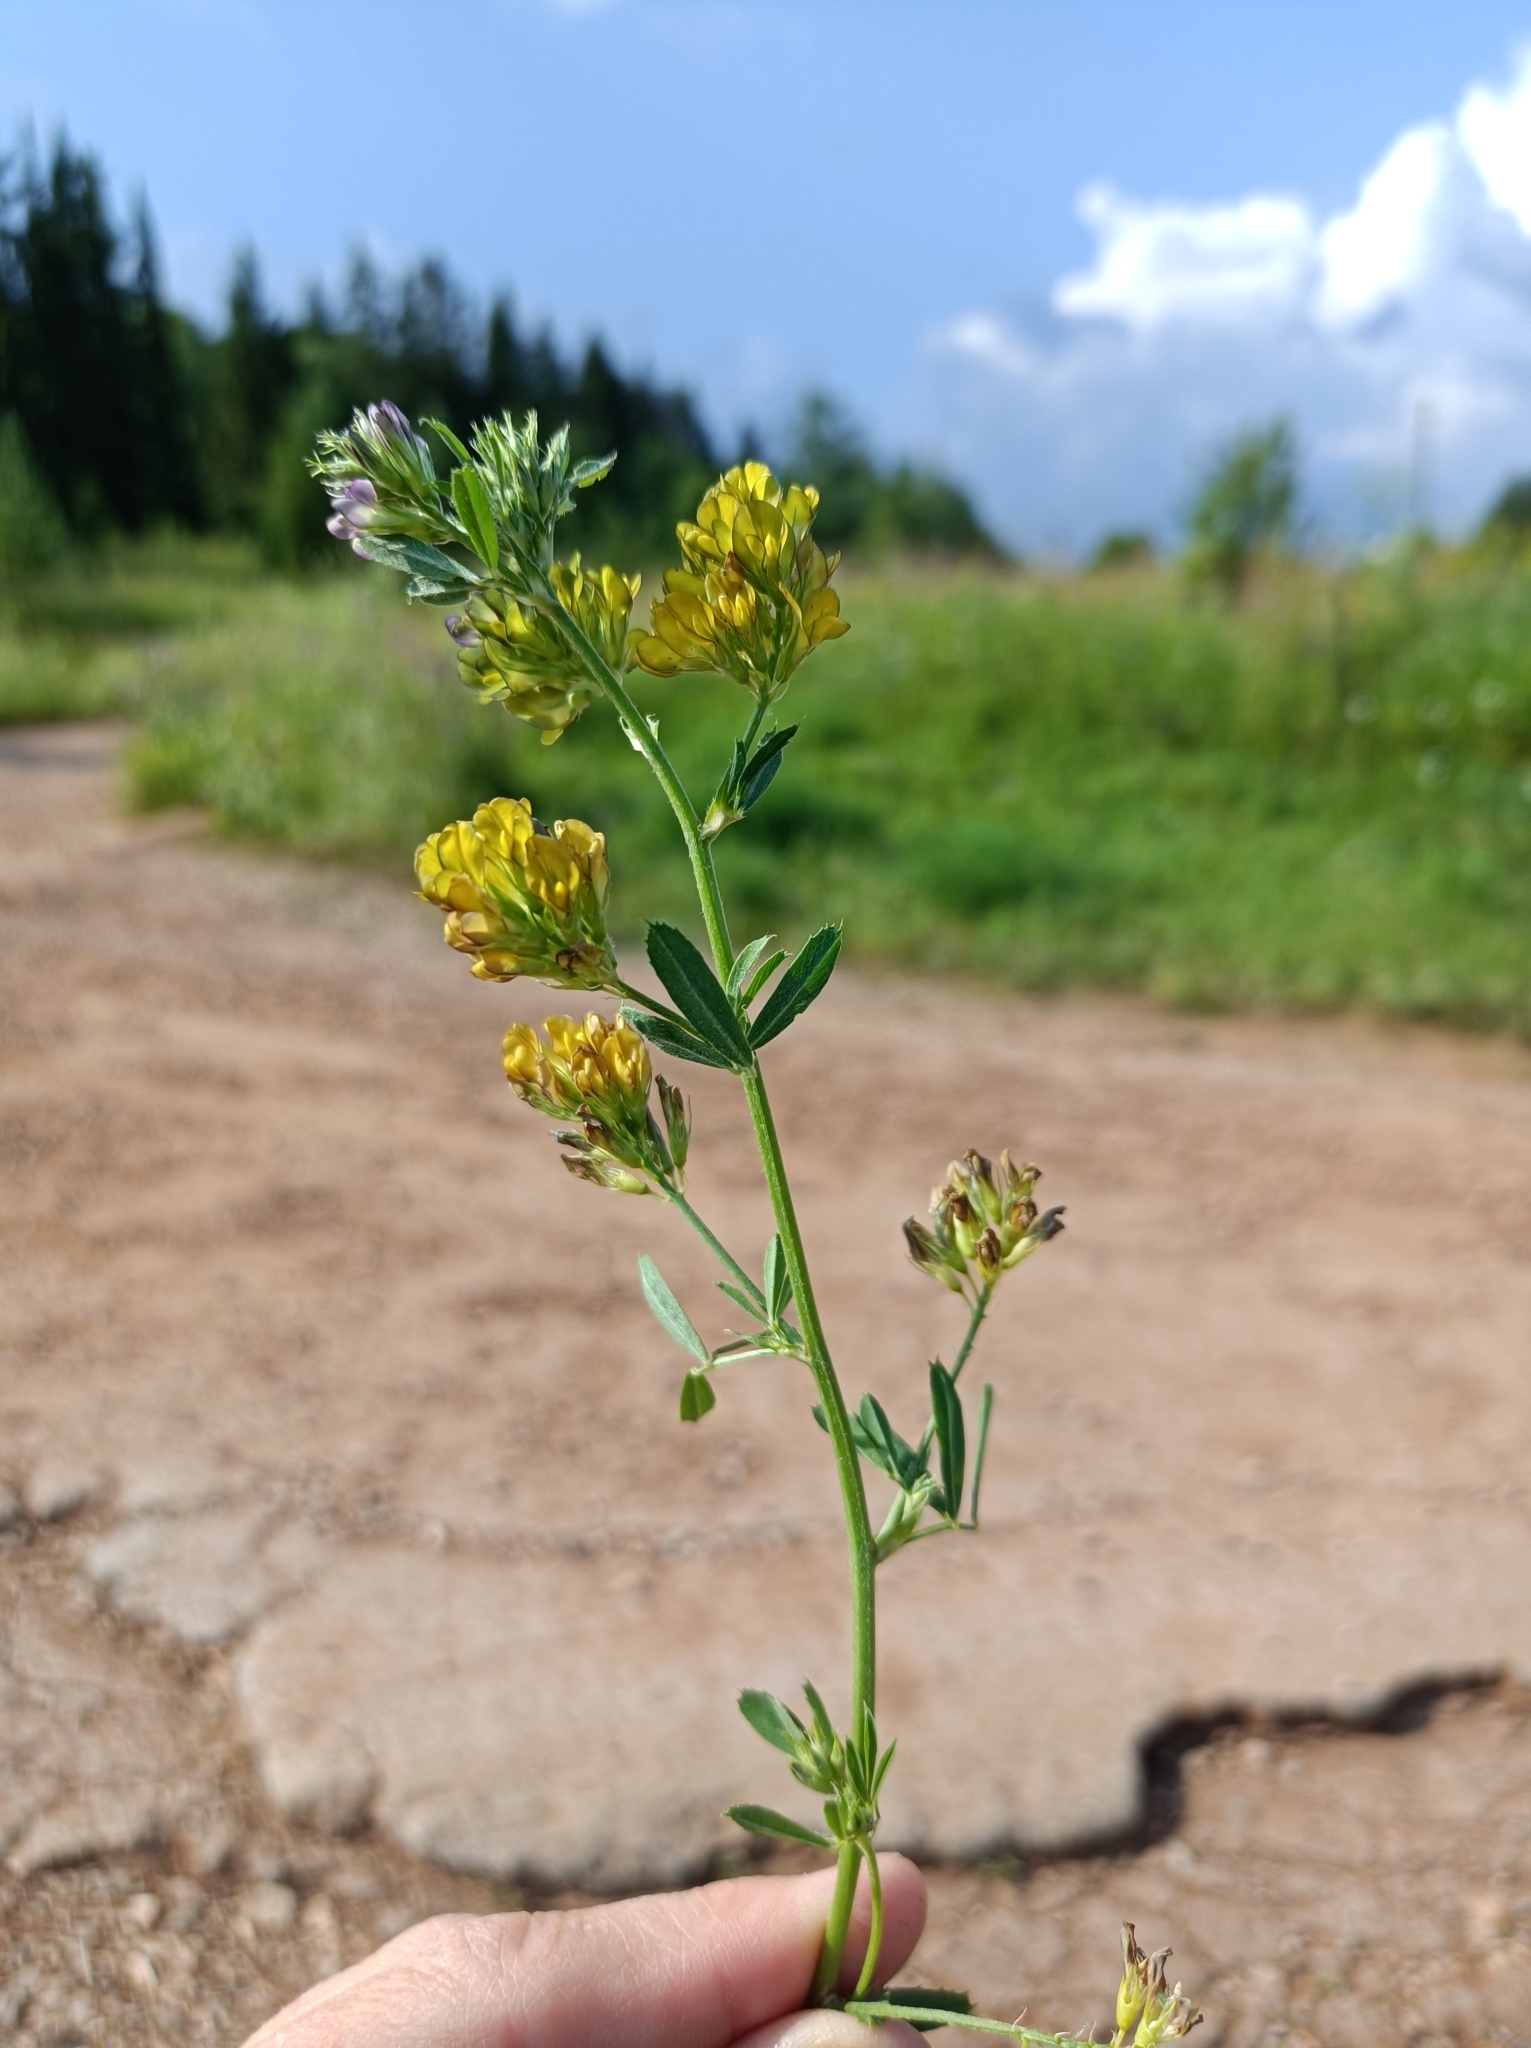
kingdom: Plantae
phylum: Tracheophyta
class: Magnoliopsida
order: Fabales
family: Fabaceae
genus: Medicago
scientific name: Medicago falcata
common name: Sickle medick
